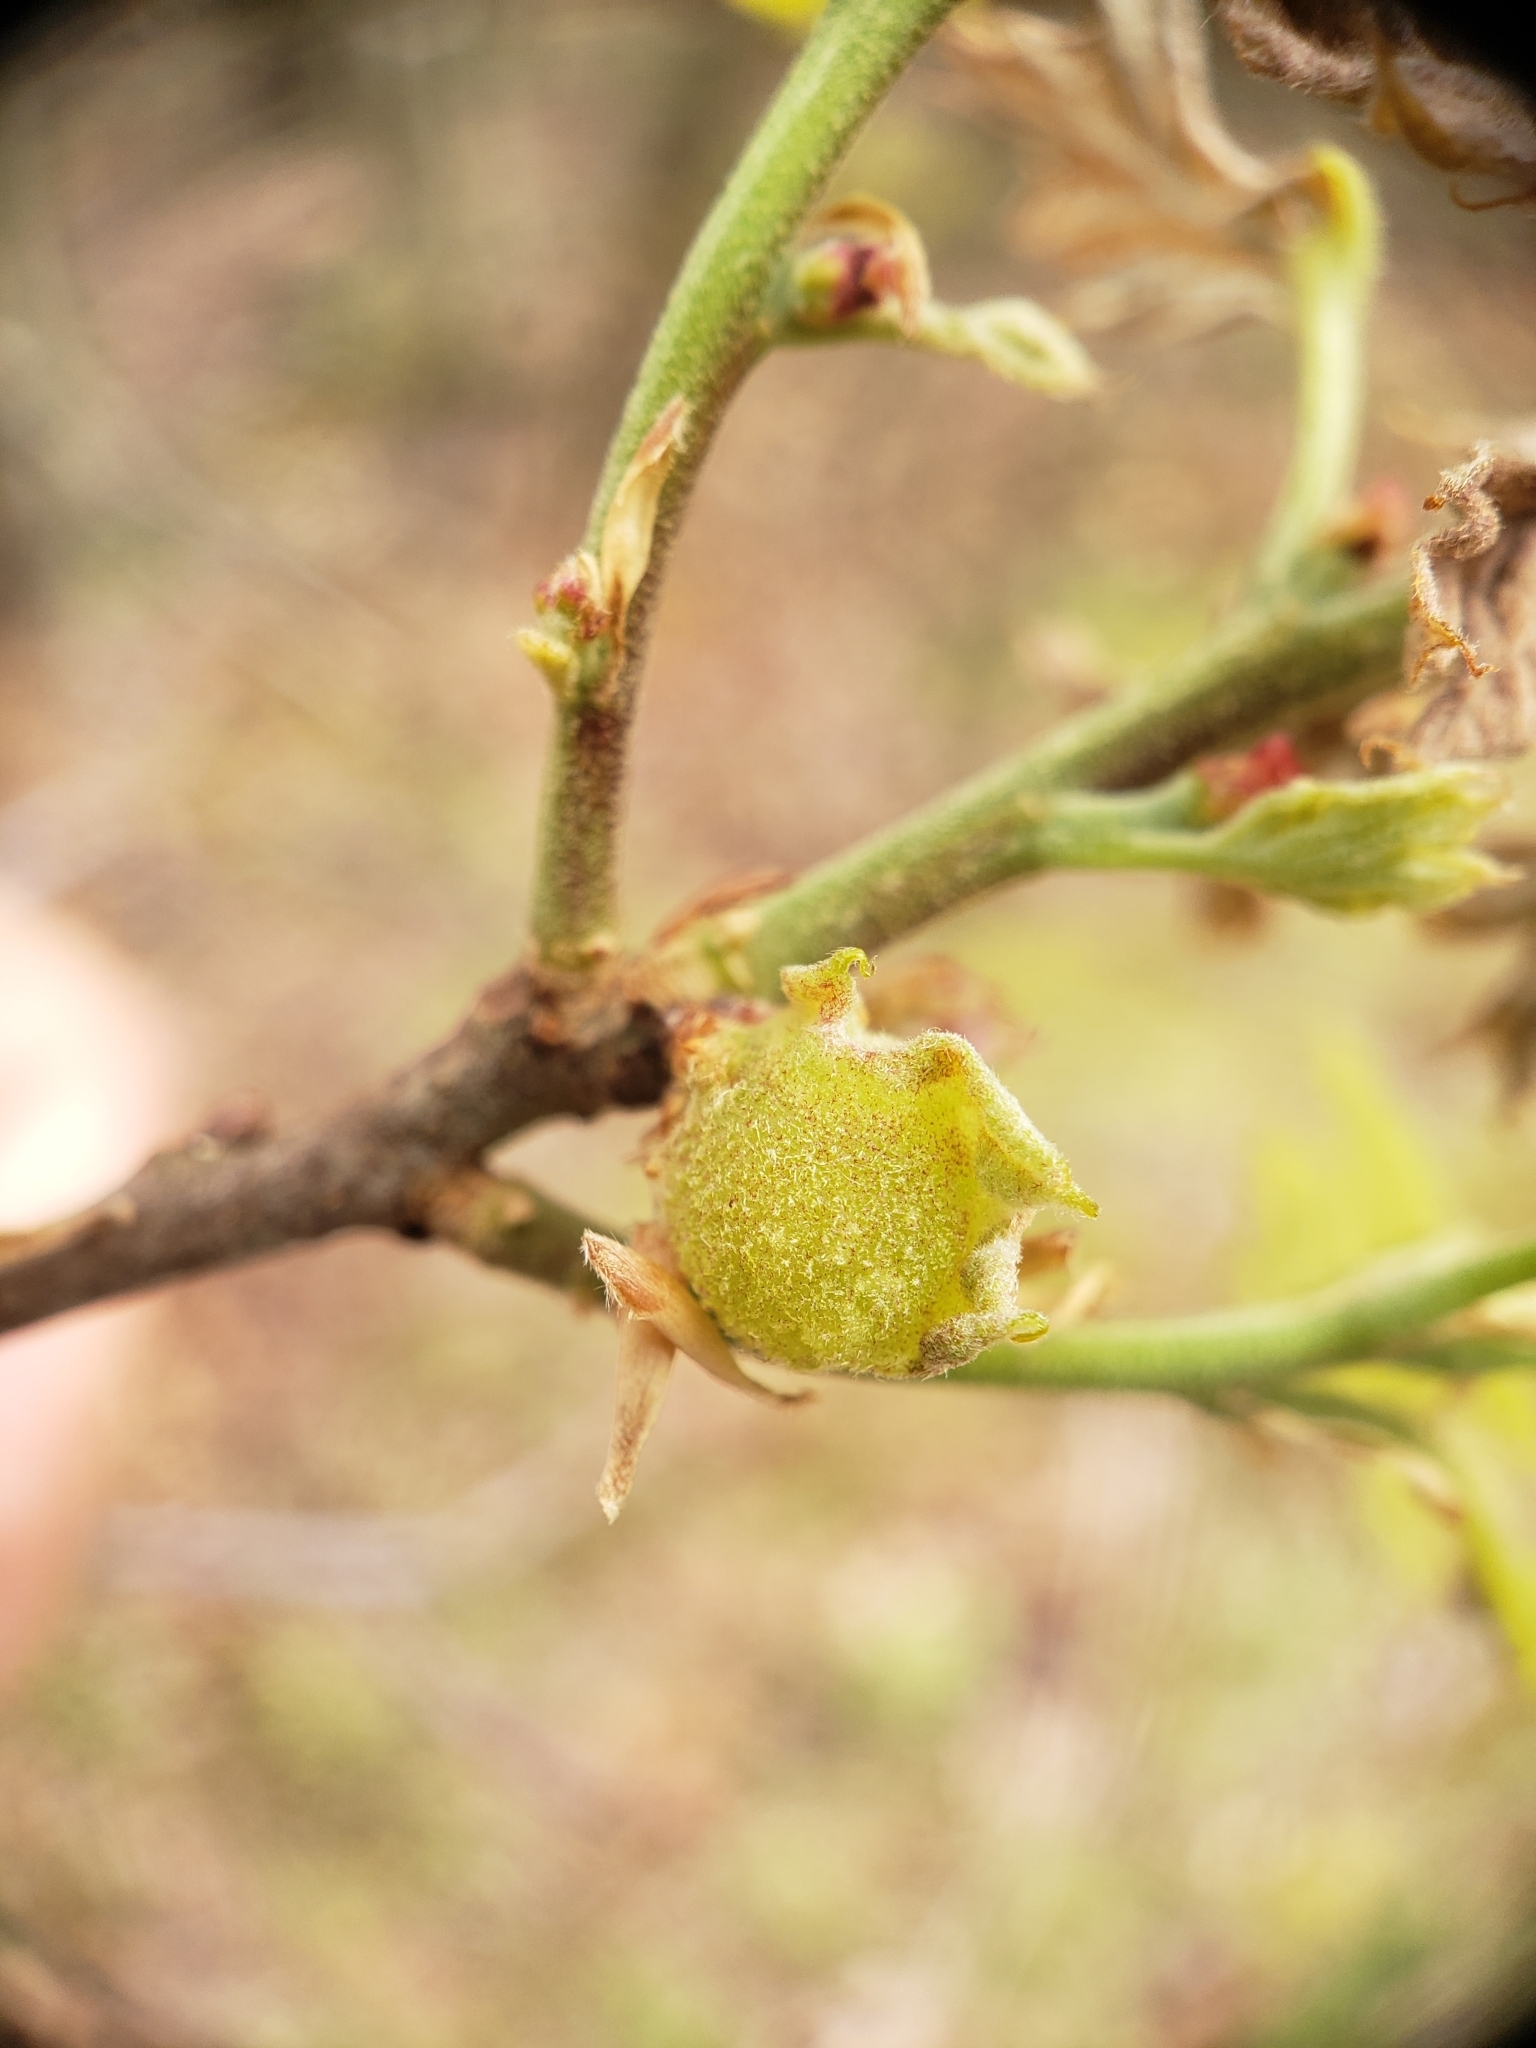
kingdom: Animalia
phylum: Arthropoda
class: Insecta
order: Hymenoptera
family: Cynipidae
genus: Dryocosmus
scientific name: Dryocosmus quercuspalustris
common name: Succulent oak gall wasp
